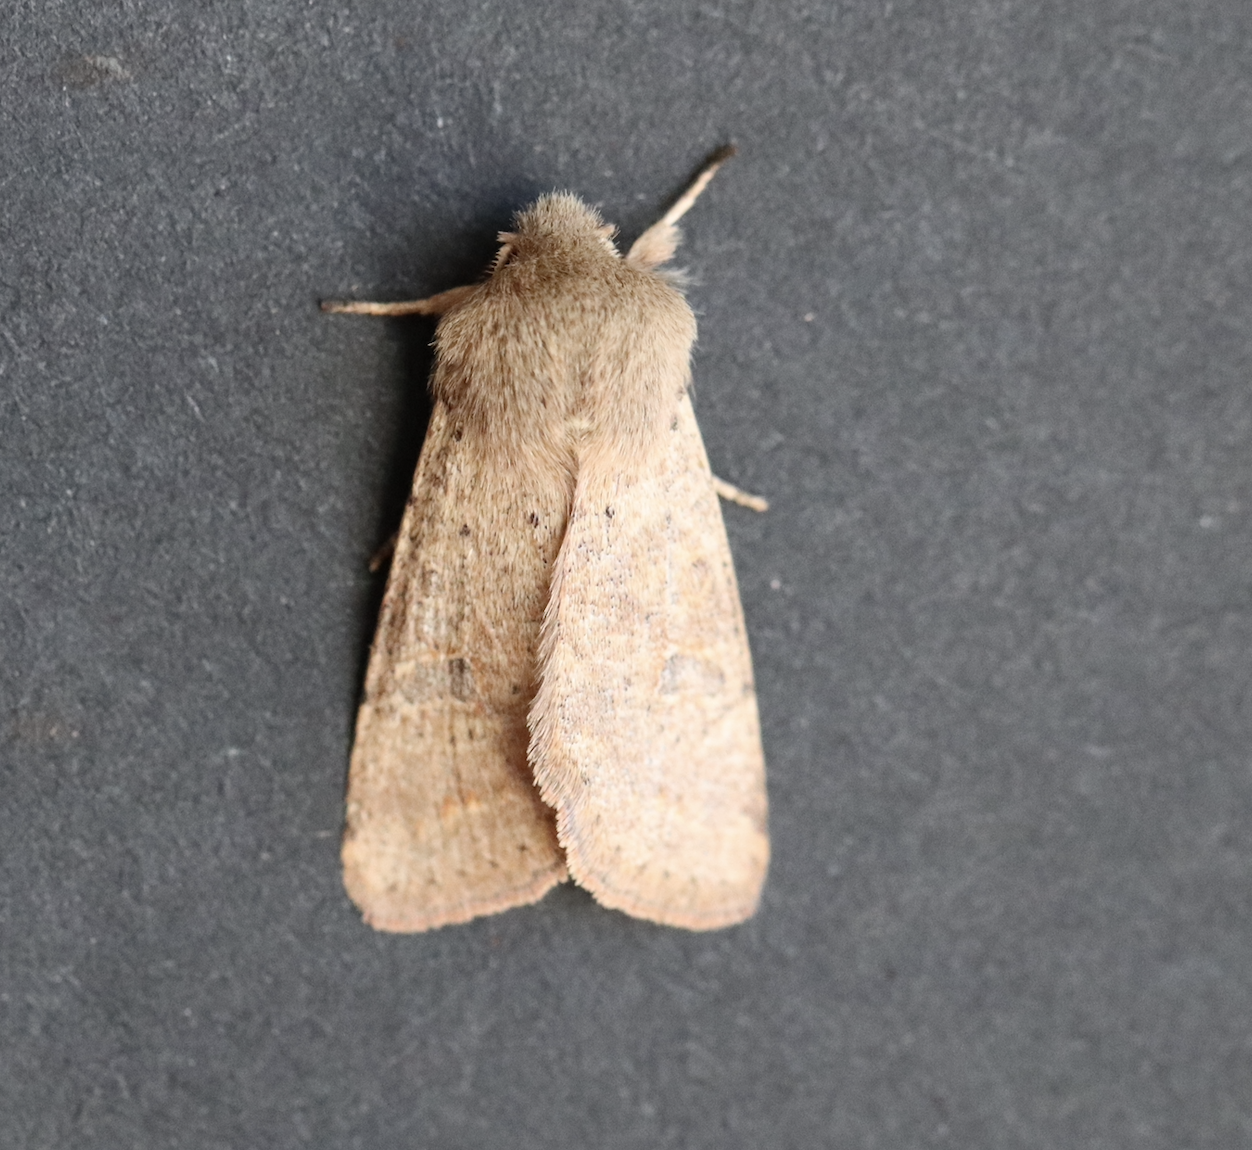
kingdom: Animalia
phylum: Arthropoda
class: Insecta
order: Lepidoptera
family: Noctuidae
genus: Orthosia
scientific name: Orthosia cruda
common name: Small quaker
